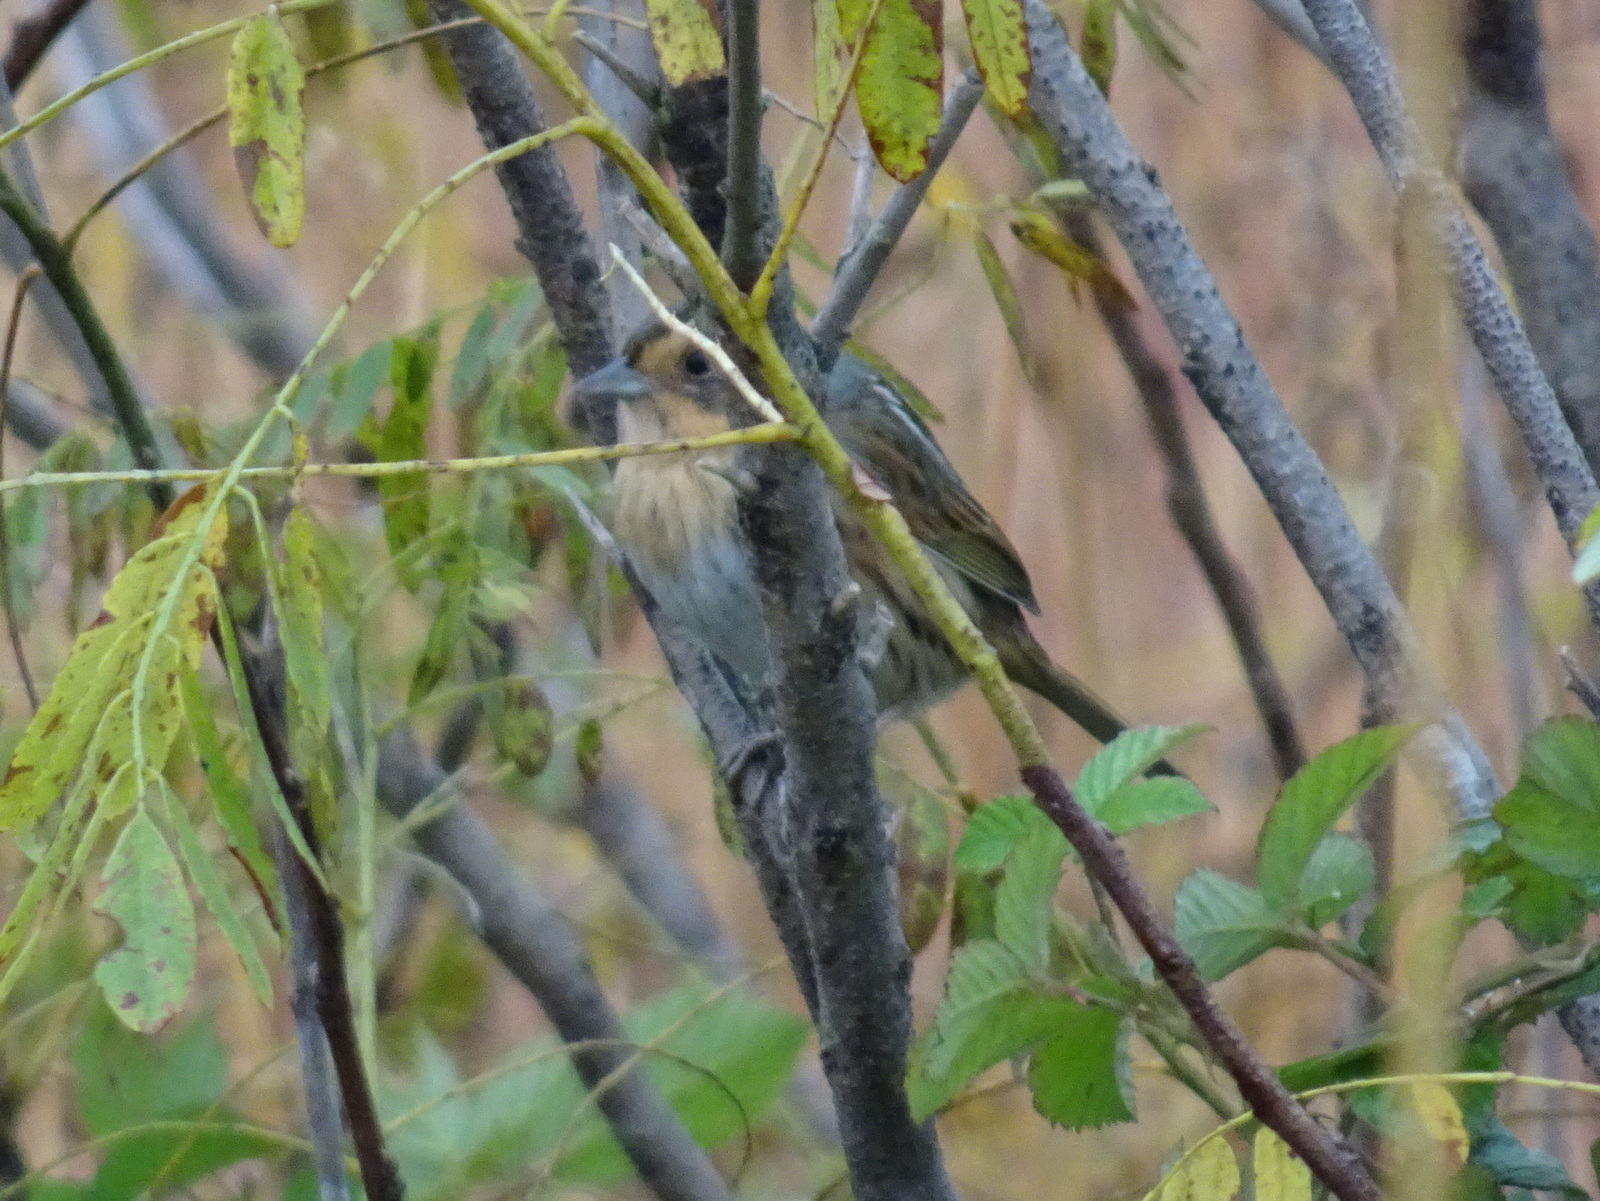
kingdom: Animalia
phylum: Chordata
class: Aves
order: Passeriformes
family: Passerellidae
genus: Ammospiza
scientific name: Ammospiza nelsoni
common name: Nelson's sparrow
